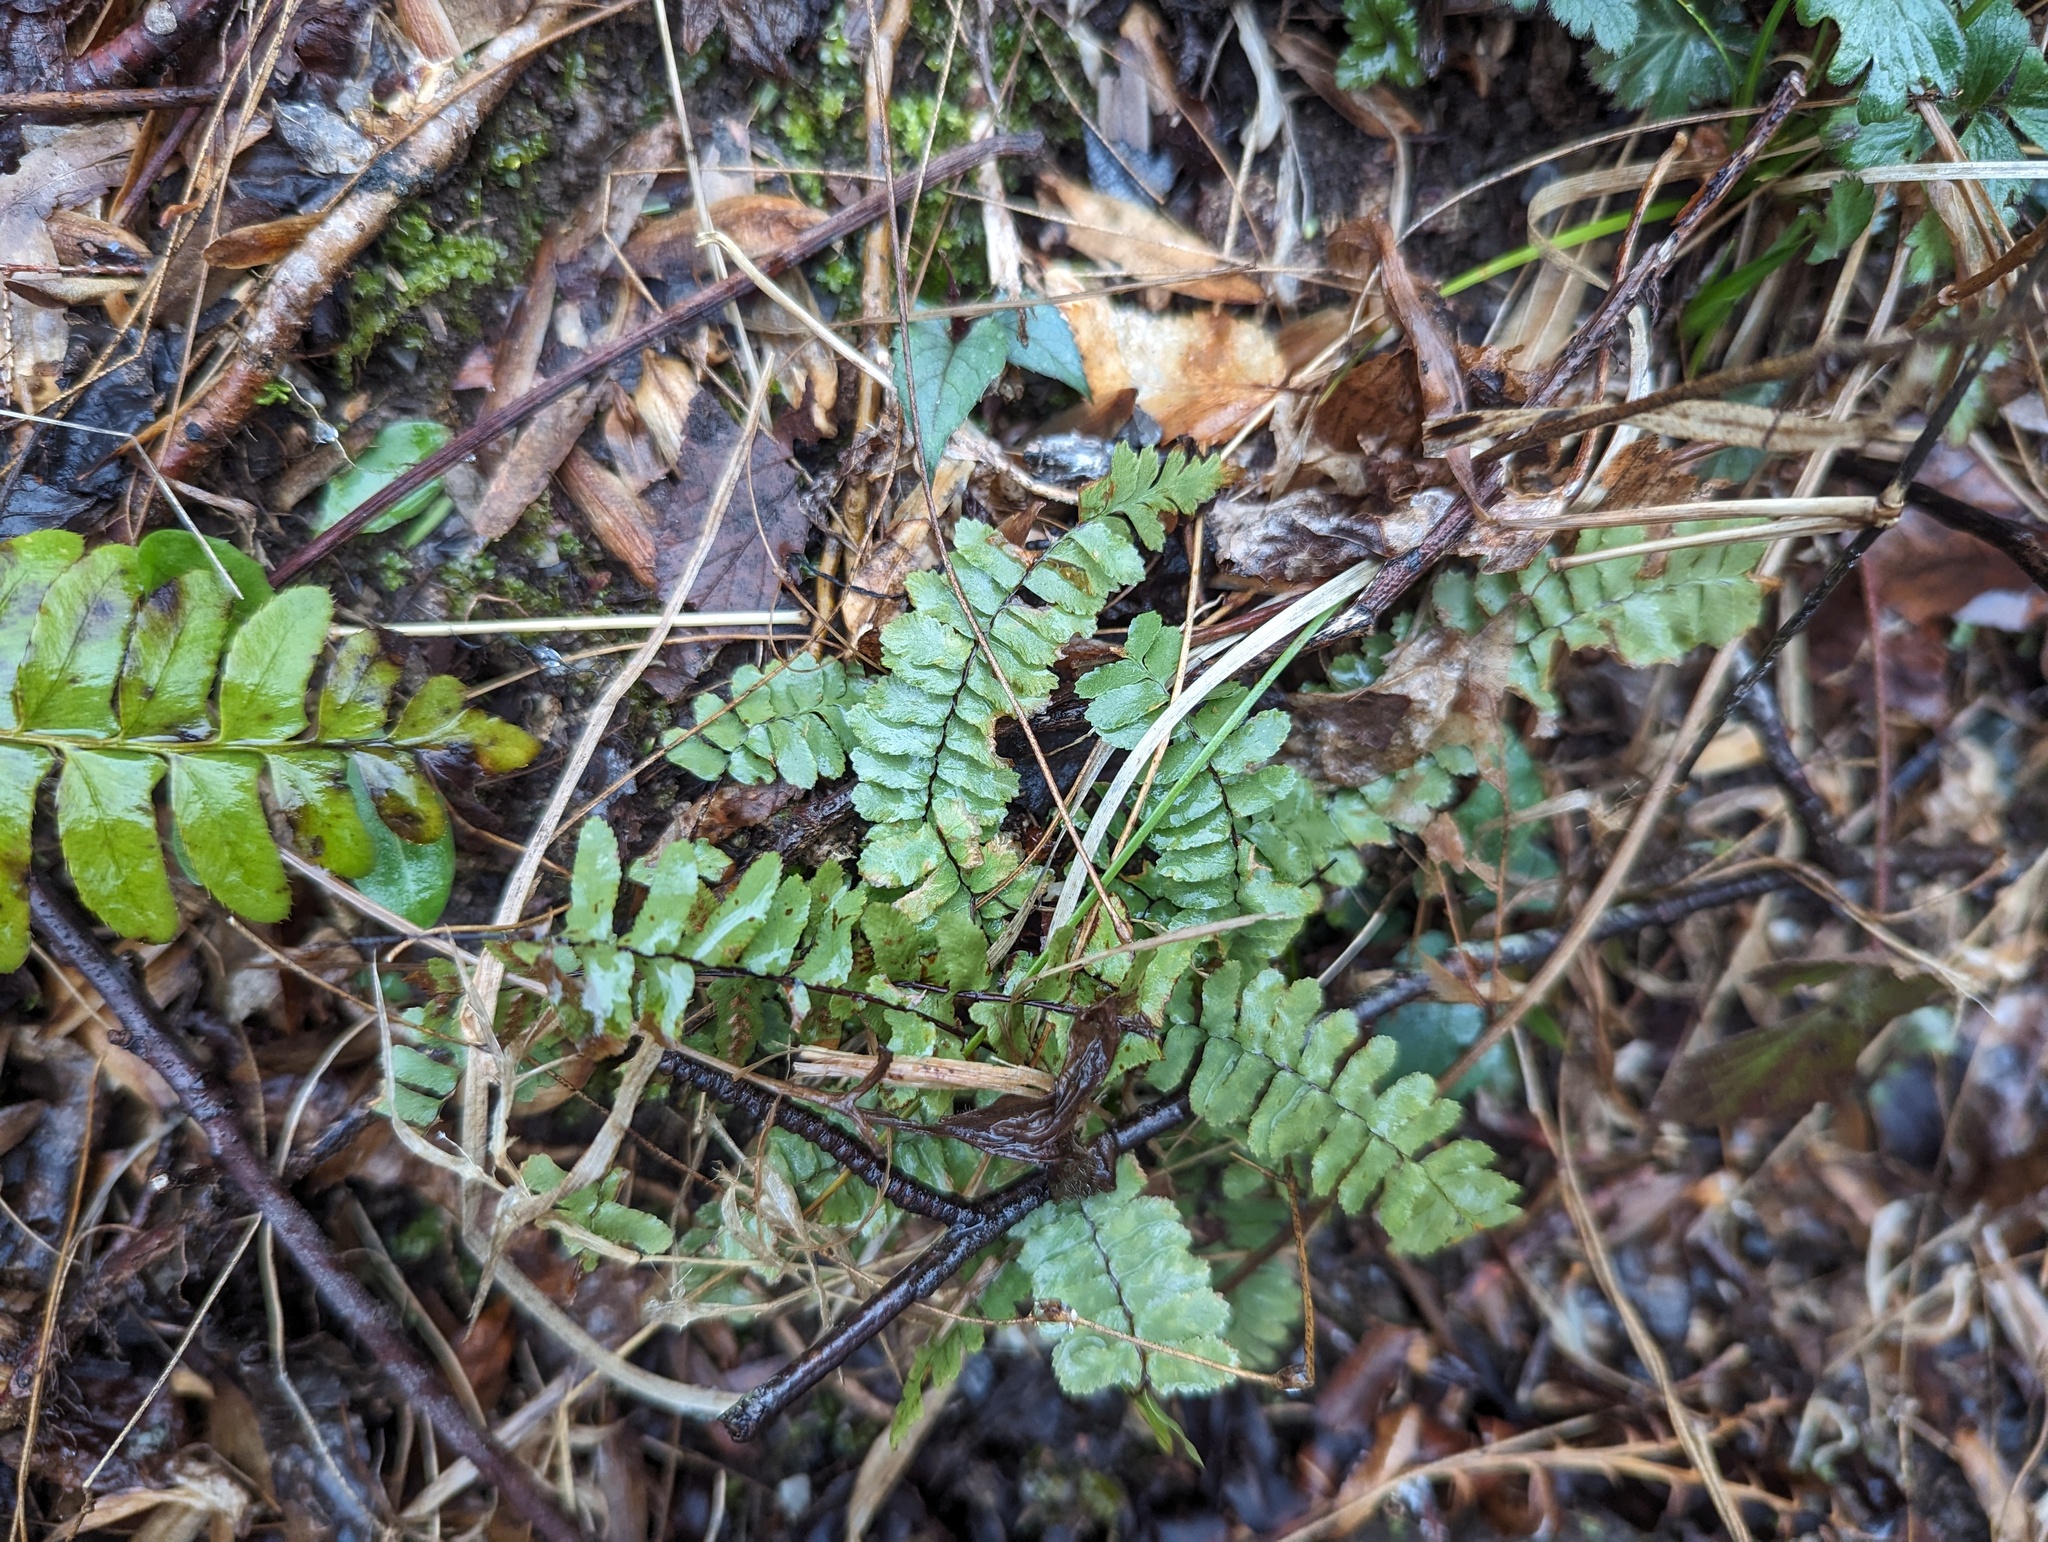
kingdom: Plantae
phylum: Tracheophyta
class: Polypodiopsida
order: Polypodiales
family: Aspleniaceae
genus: Asplenium
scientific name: Asplenium platyneuron
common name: Ebony spleenwort
